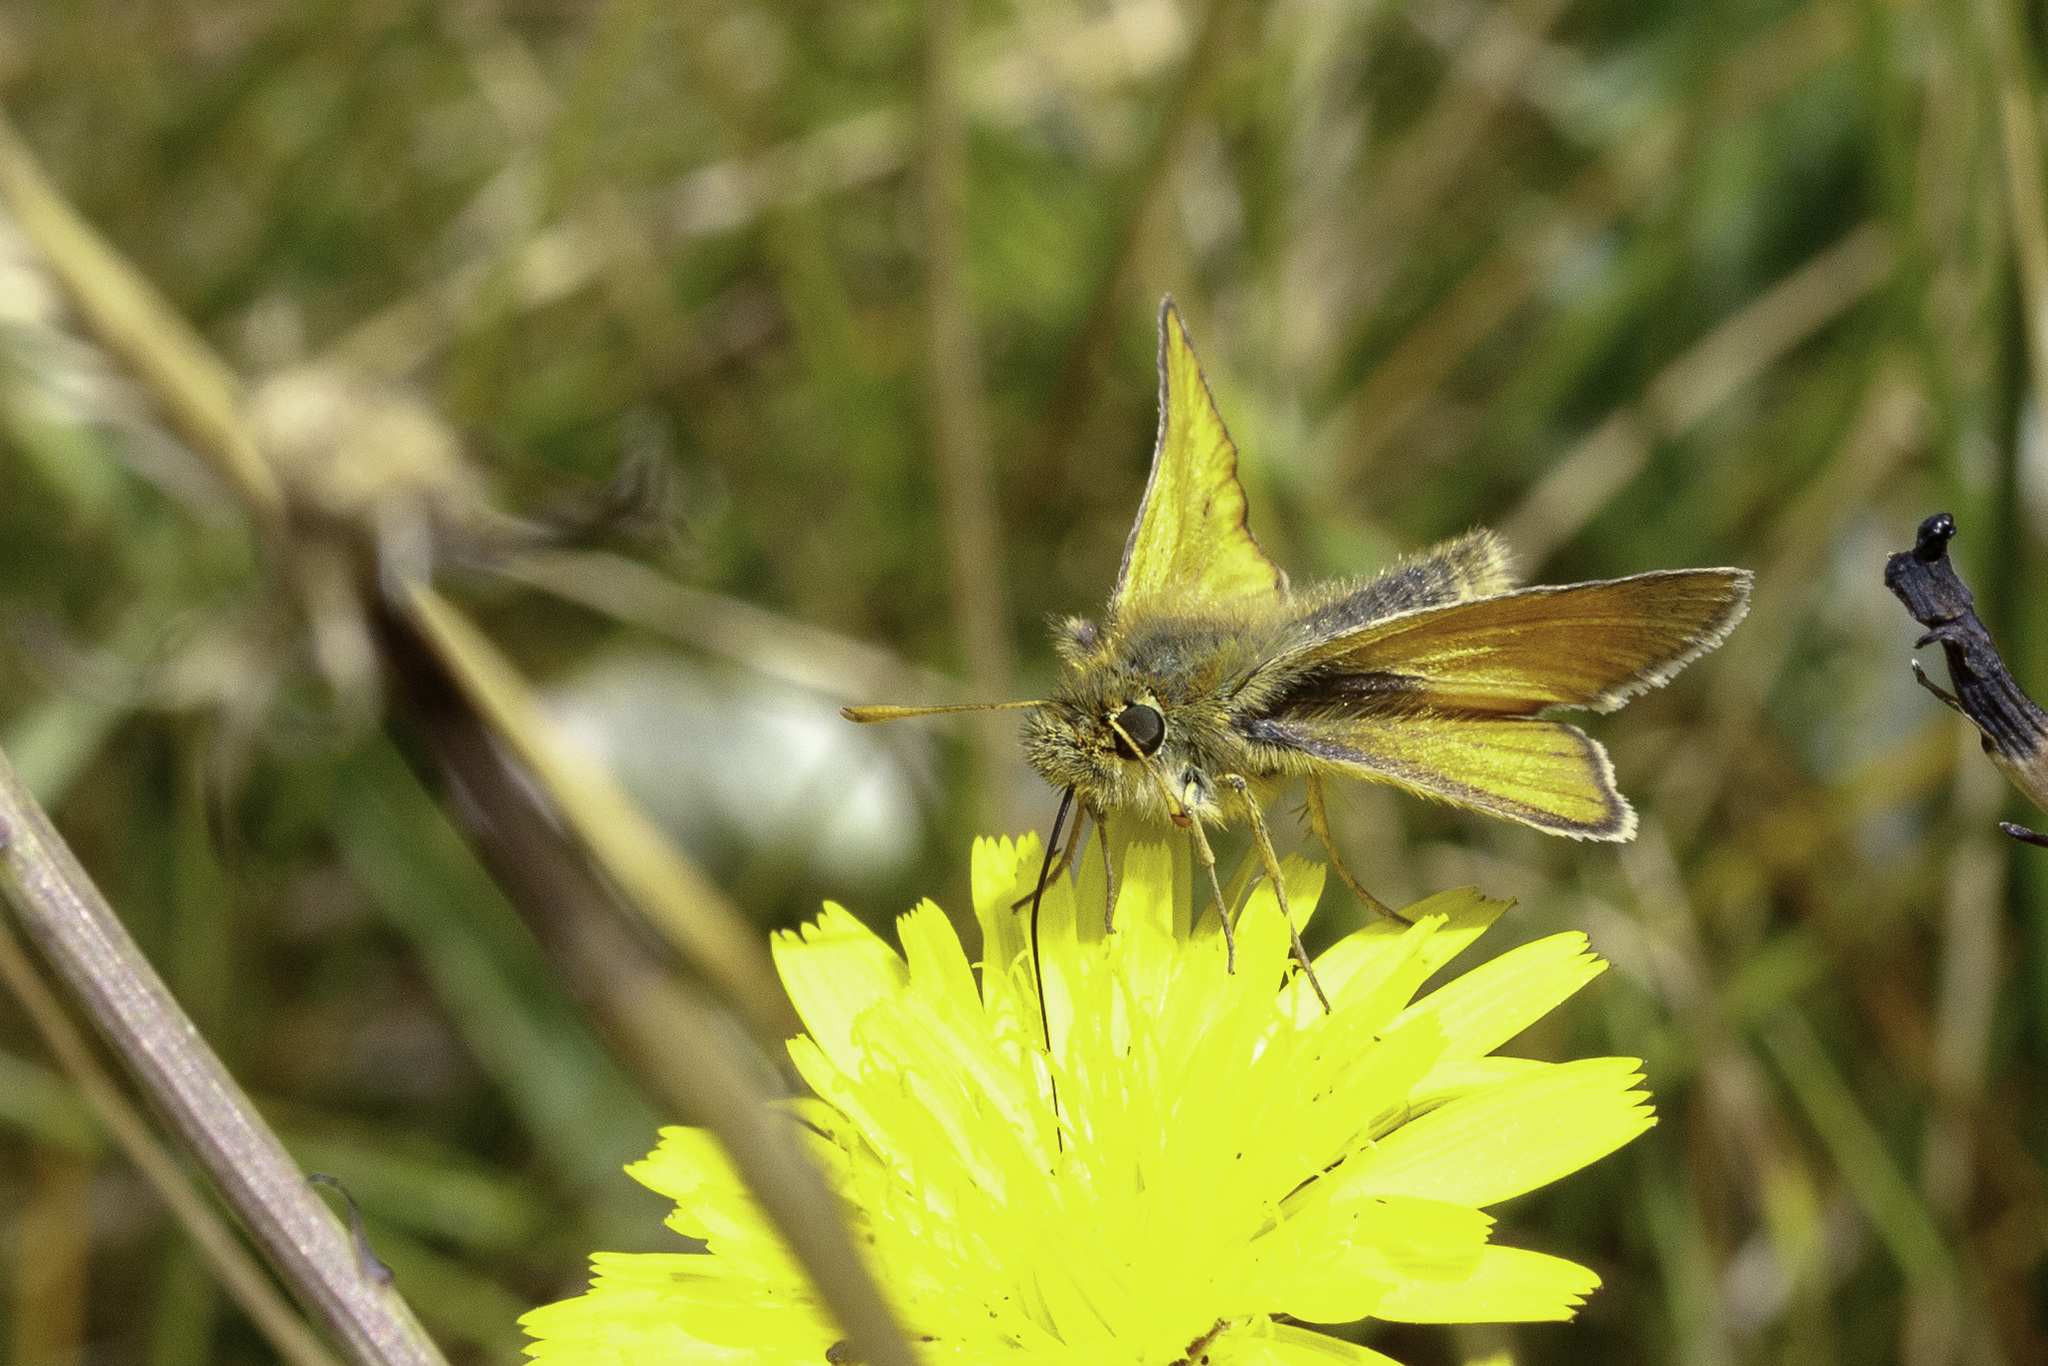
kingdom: Animalia
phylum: Arthropoda
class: Insecta
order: Lepidoptera
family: Hesperiidae
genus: Thymelicus
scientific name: Thymelicus sylvestris
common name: Small skipper
